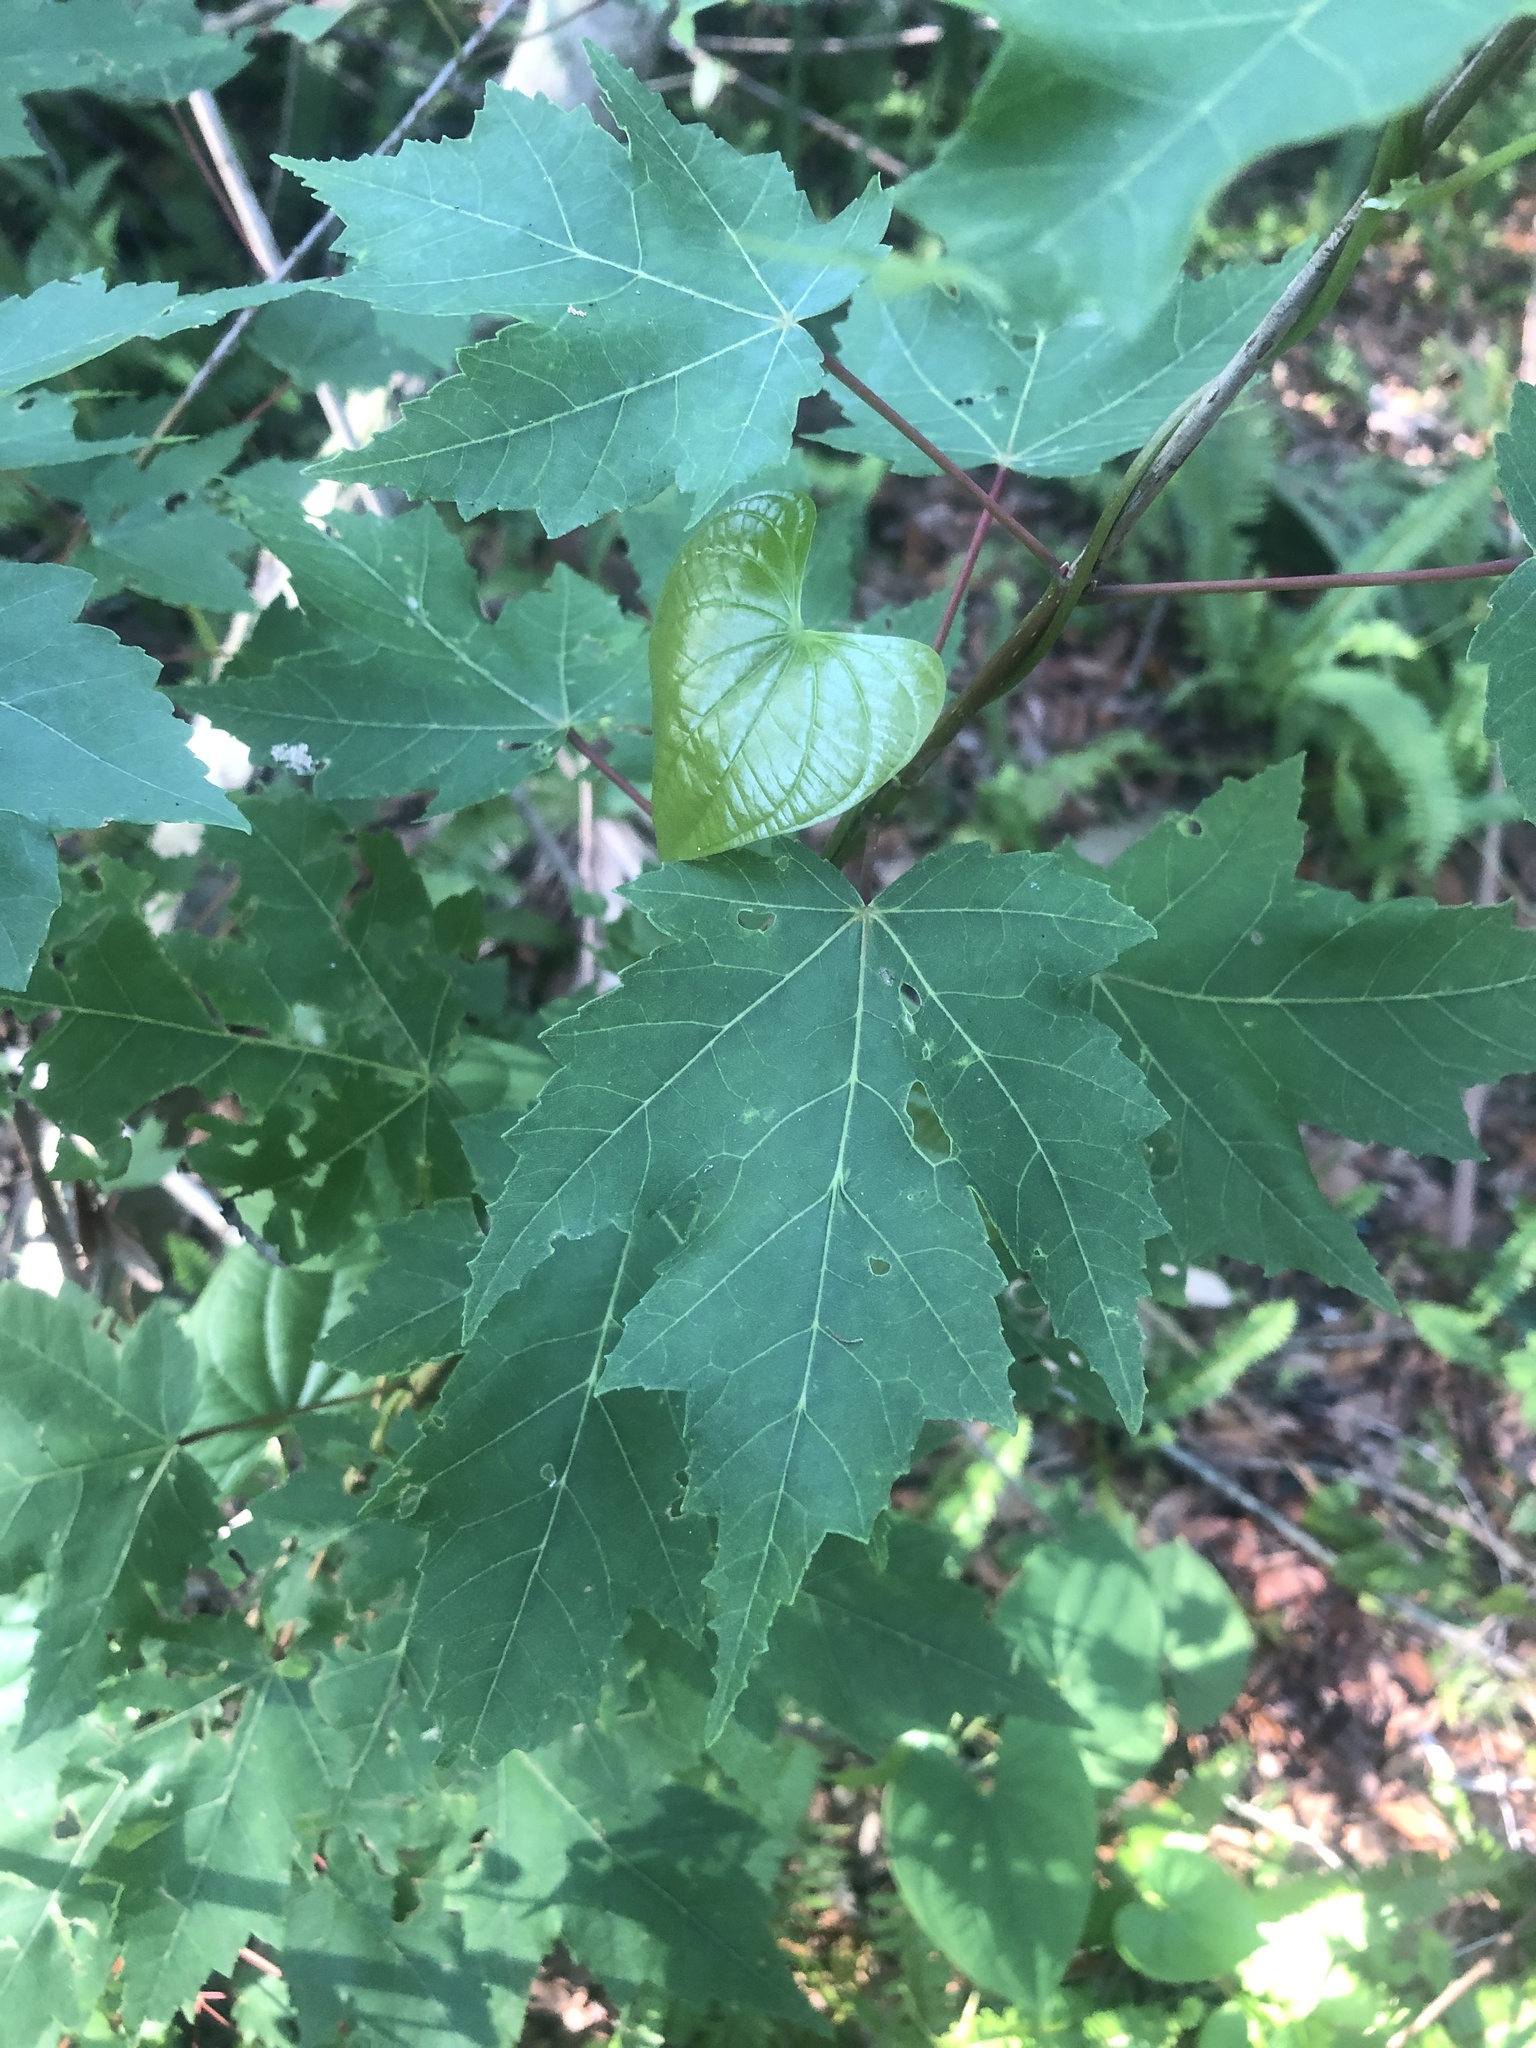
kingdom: Plantae
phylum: Tracheophyta
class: Magnoliopsida
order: Sapindales
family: Sapindaceae
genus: Acer
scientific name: Acer rubrum
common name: Red maple
